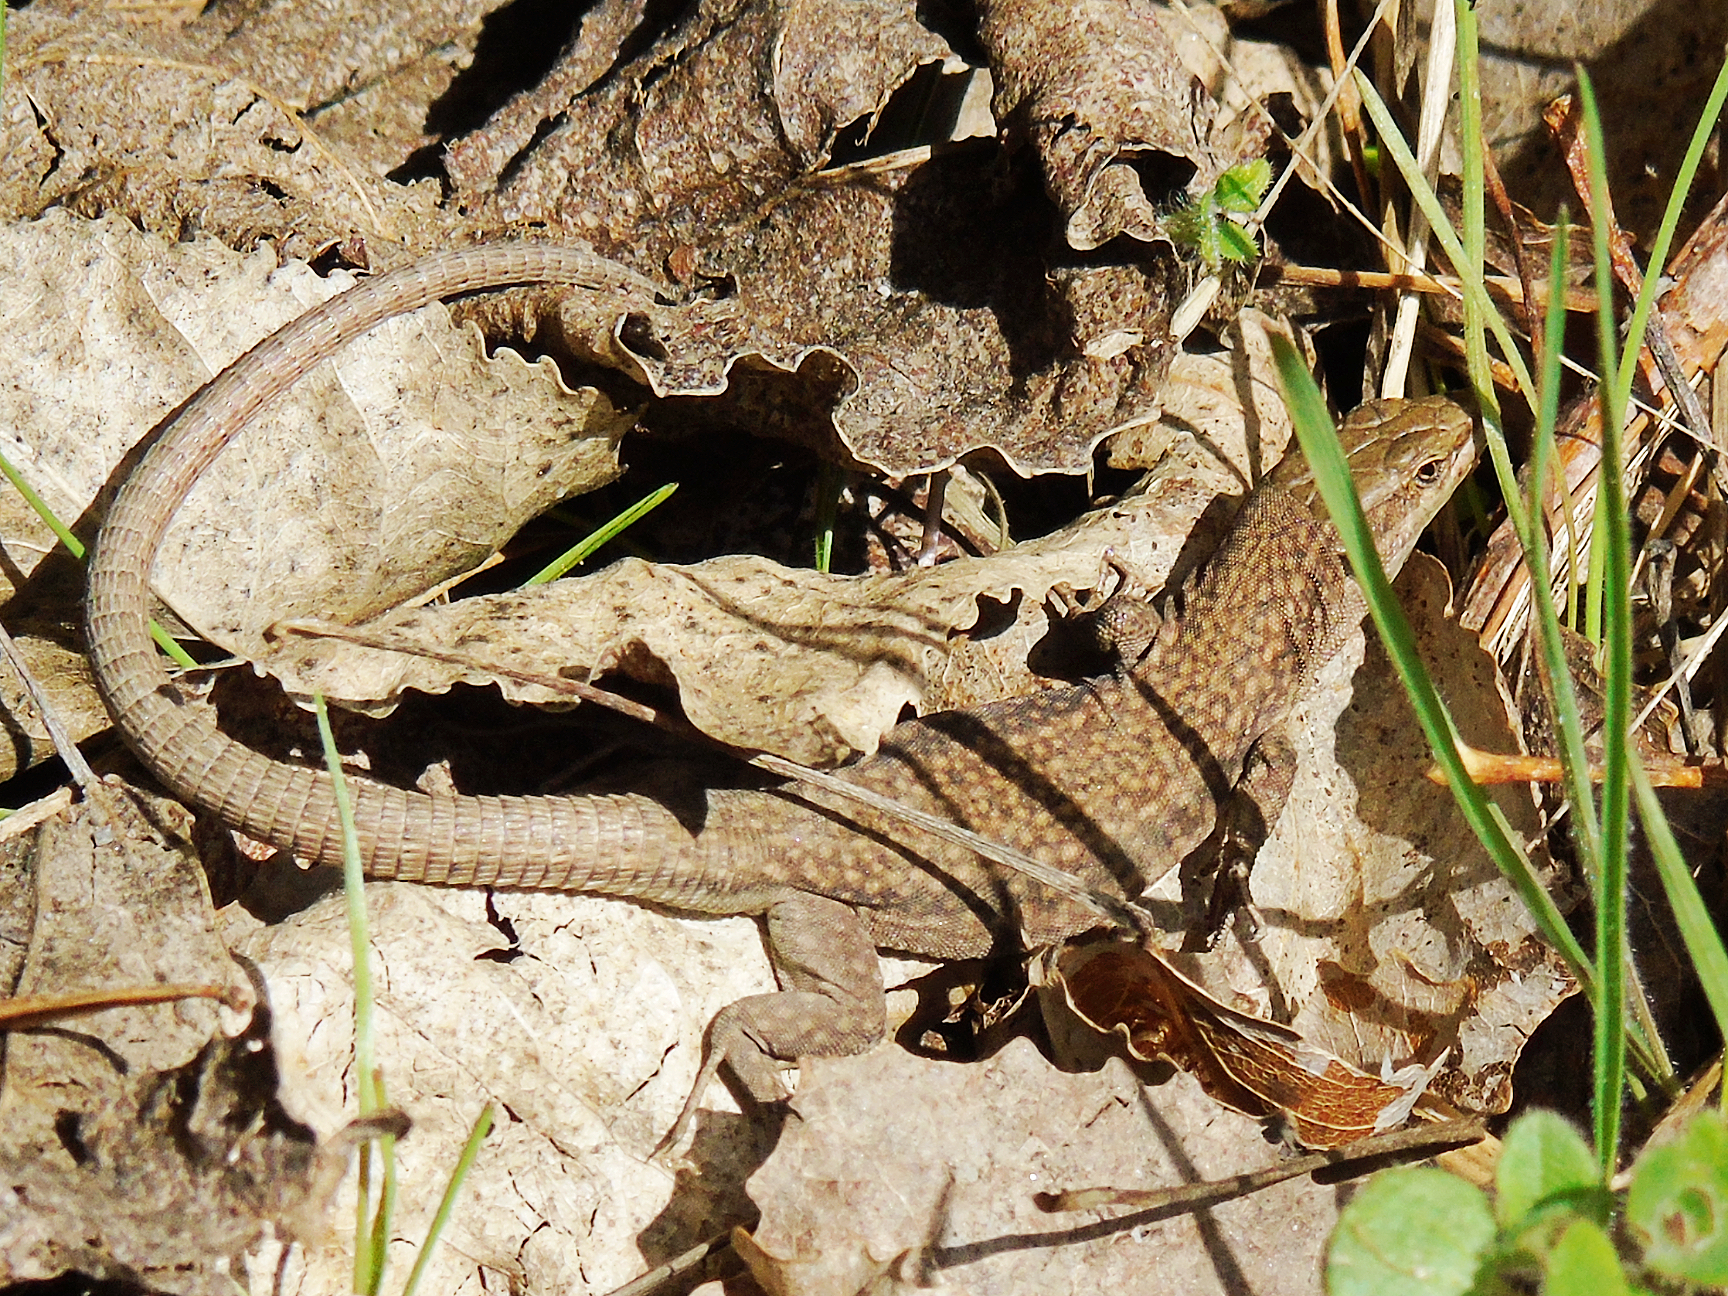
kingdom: Animalia
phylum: Chordata
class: Squamata
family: Lacertidae
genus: Podarcis
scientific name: Podarcis liolepis
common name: Catalonian wall lizard
